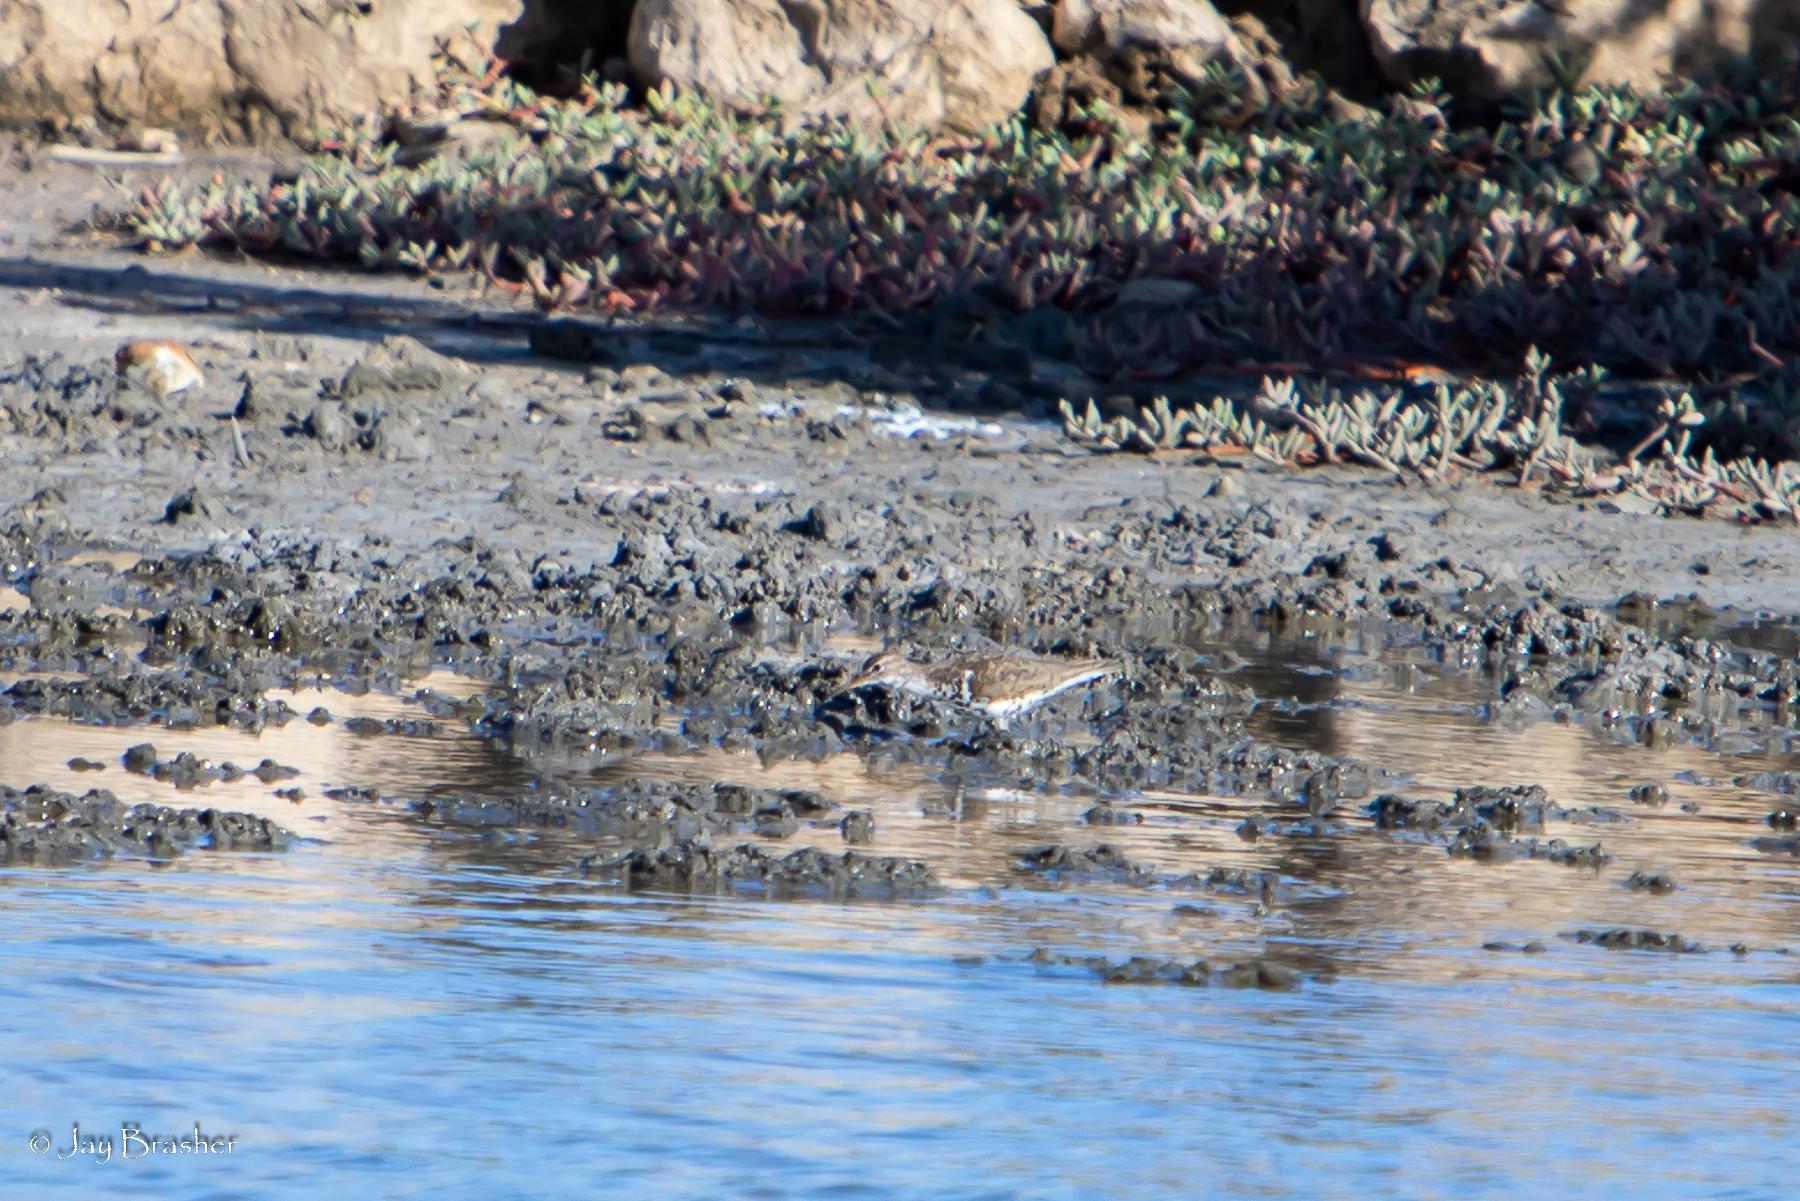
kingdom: Animalia
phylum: Chordata
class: Aves
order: Charadriiformes
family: Scolopacidae
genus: Actitis
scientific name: Actitis macularius
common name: Spotted sandpiper
